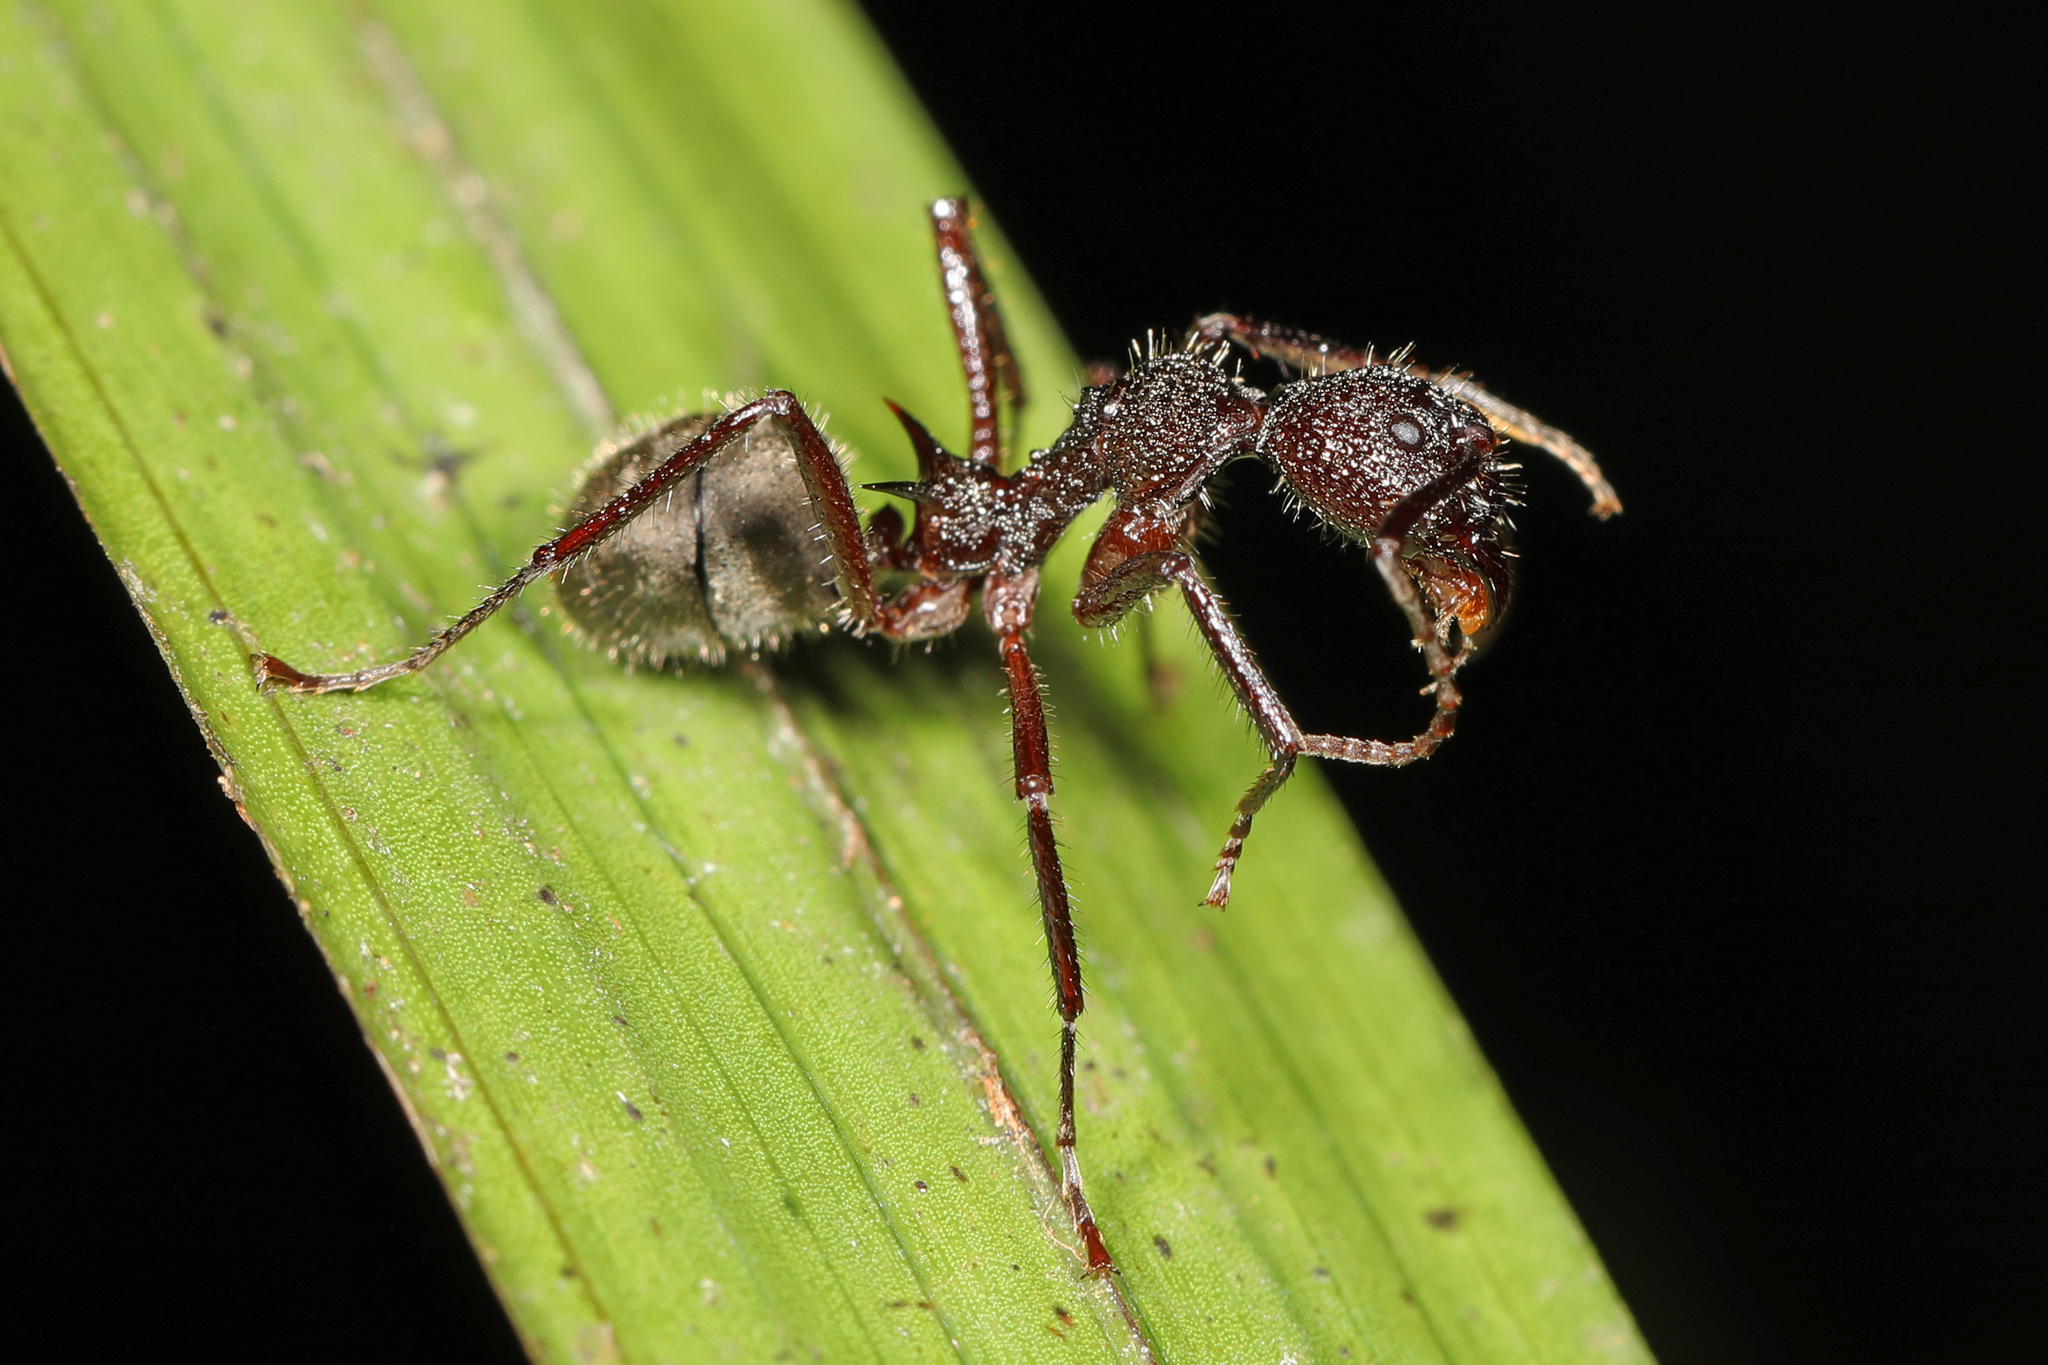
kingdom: Animalia
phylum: Arthropoda
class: Insecta
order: Hymenoptera
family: Formicidae
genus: Dolichoderus
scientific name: Dolichoderus decollatus
